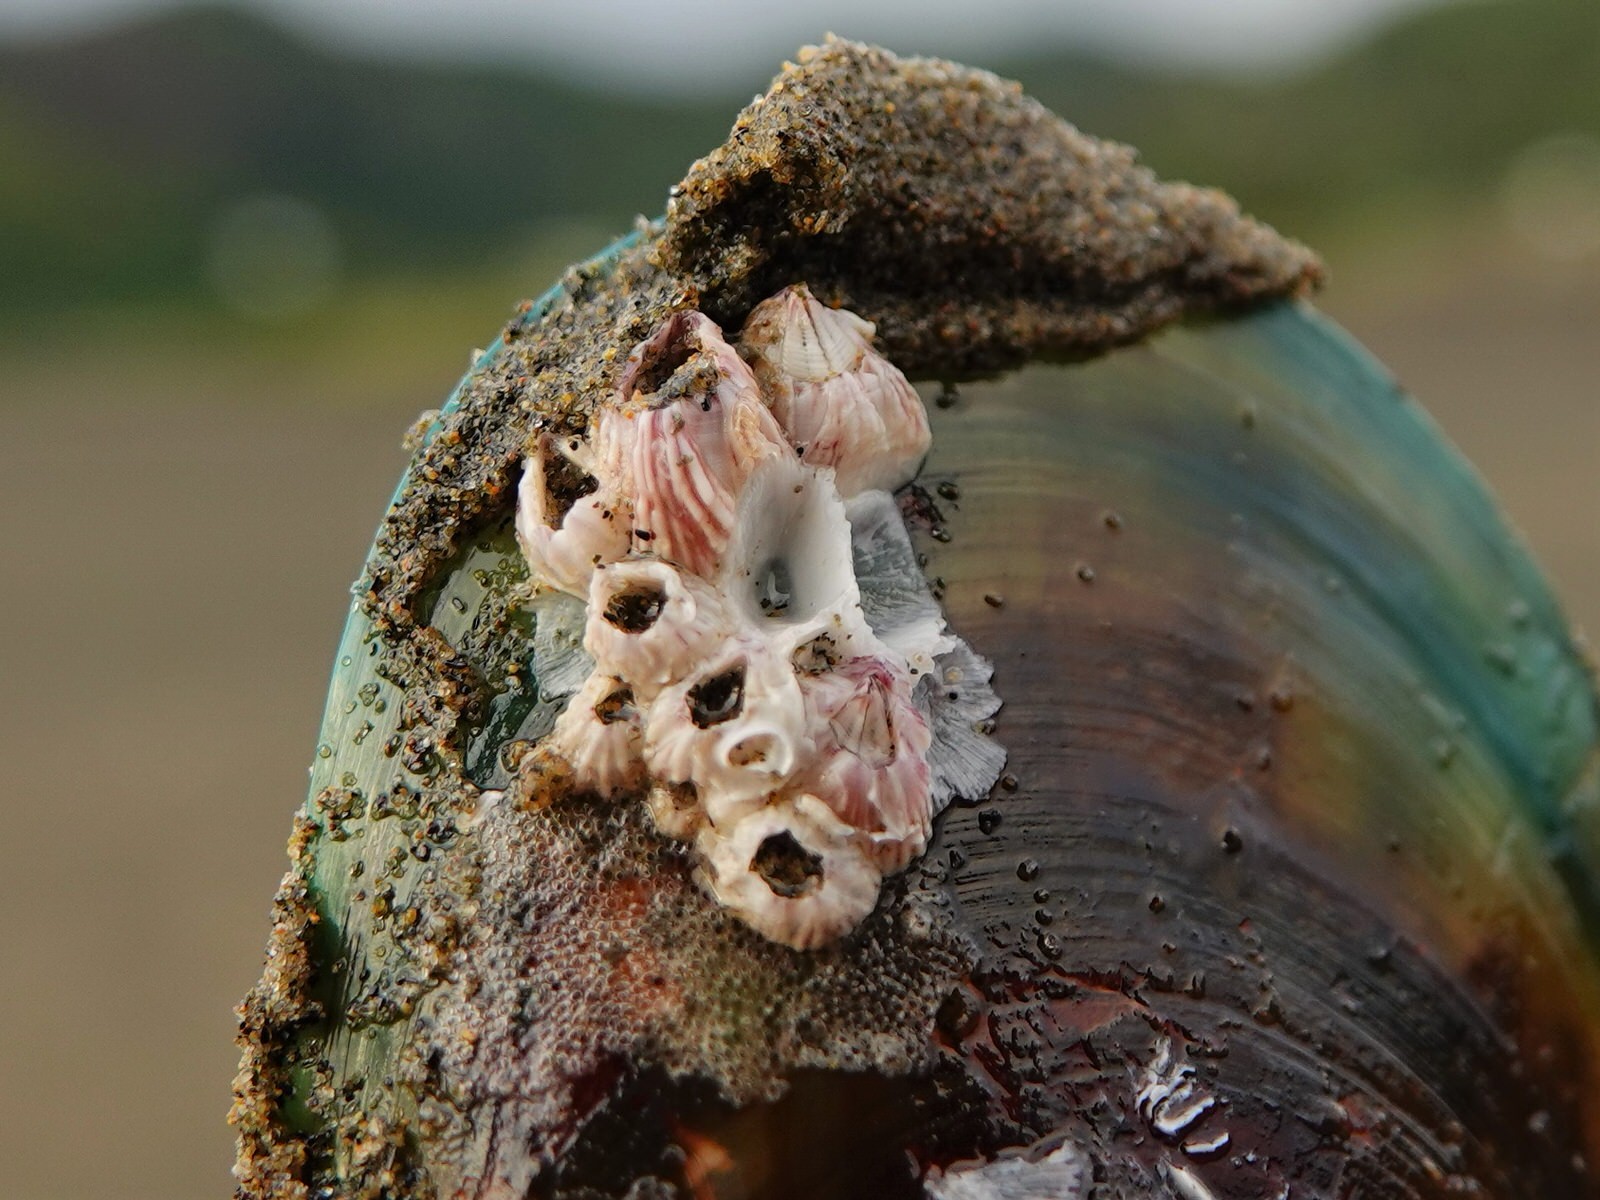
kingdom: Animalia
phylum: Arthropoda
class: Maxillopoda
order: Sessilia
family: Balanidae
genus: Balanus
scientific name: Balanus trigonus
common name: Triangle barnacle
